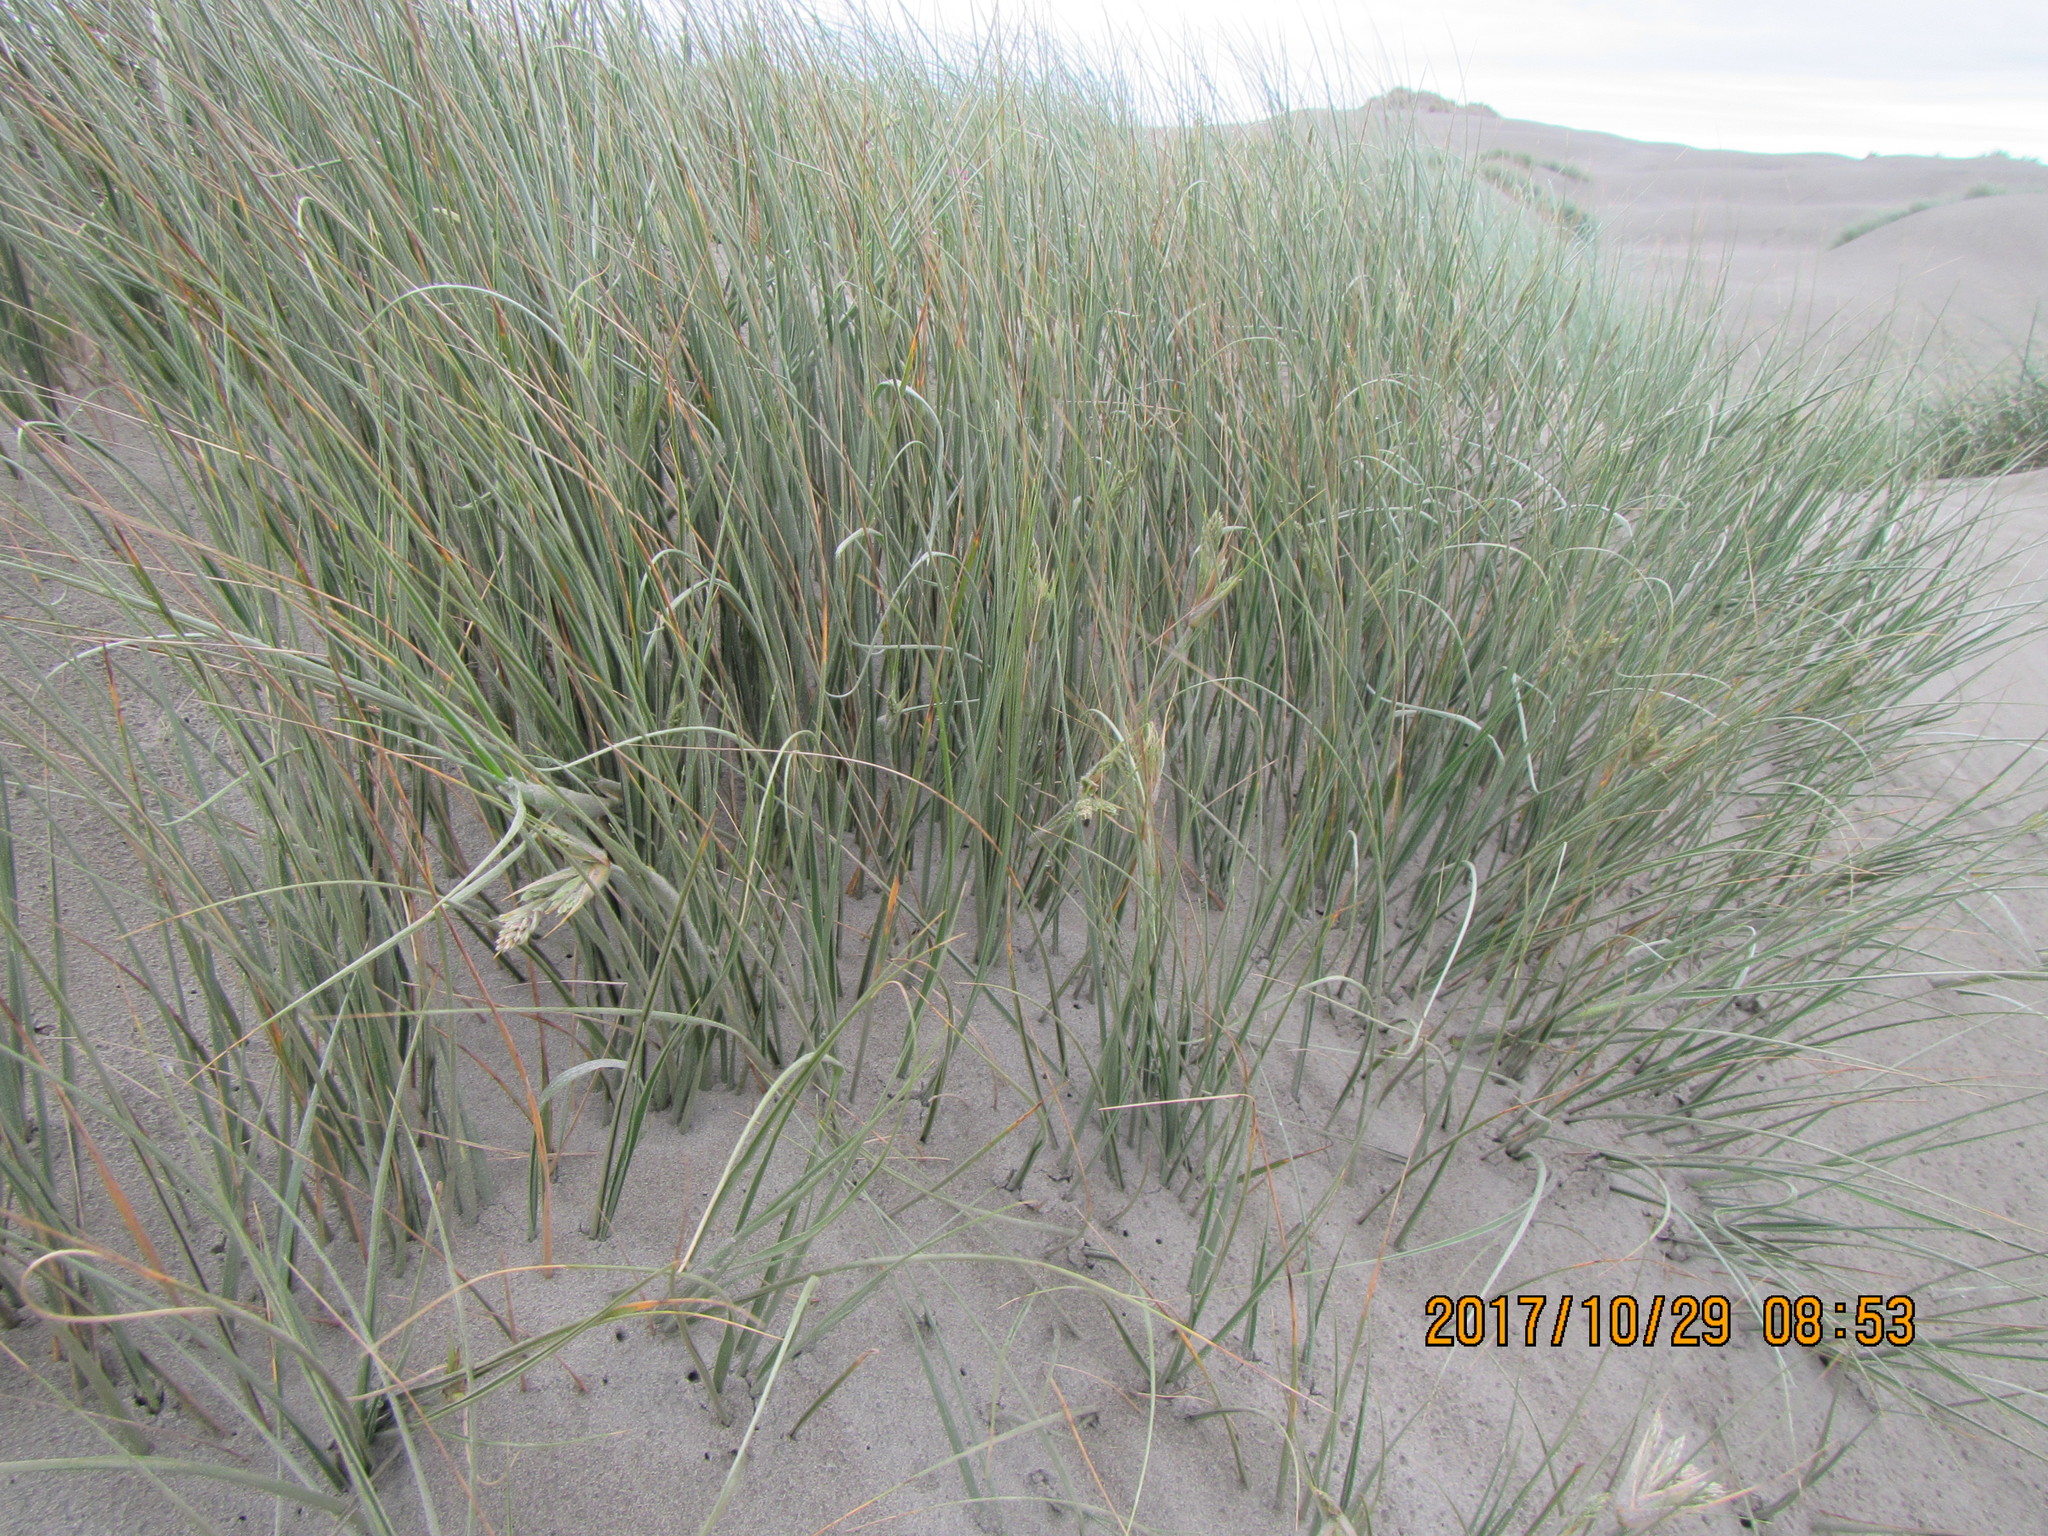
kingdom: Plantae
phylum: Tracheophyta
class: Liliopsida
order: Poales
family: Poaceae
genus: Spinifex
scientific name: Spinifex sericeus
